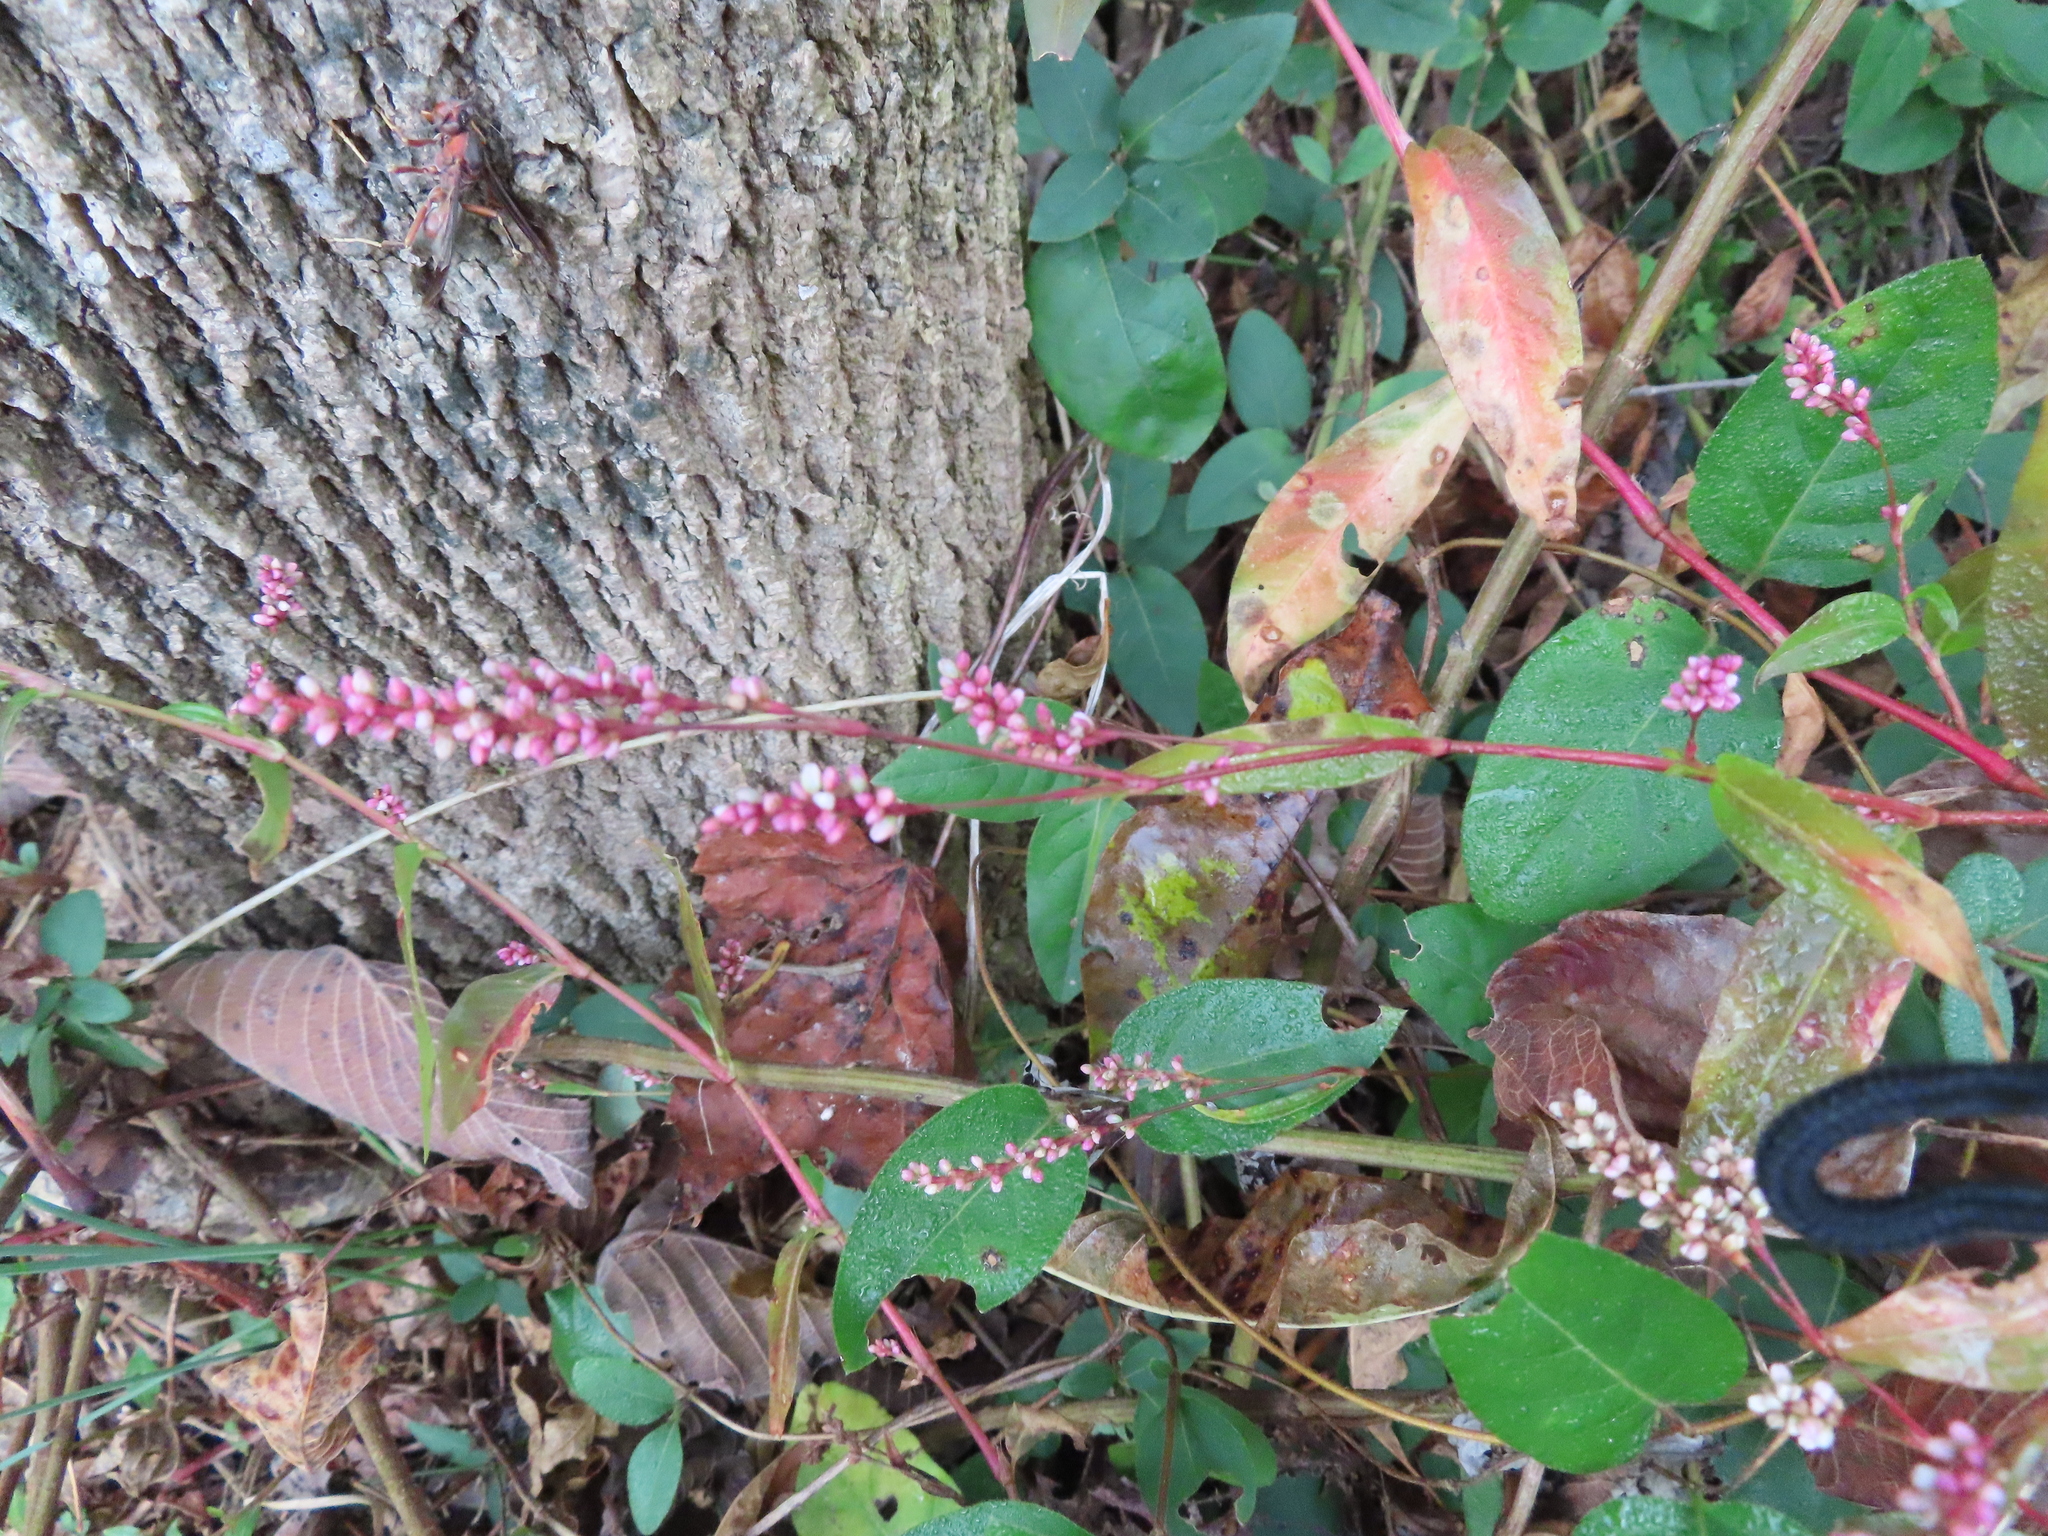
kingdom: Plantae
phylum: Tracheophyta
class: Magnoliopsida
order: Caryophyllales
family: Polygonaceae
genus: Persicaria
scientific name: Persicaria longiseta
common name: Bristly lady's-thumb
